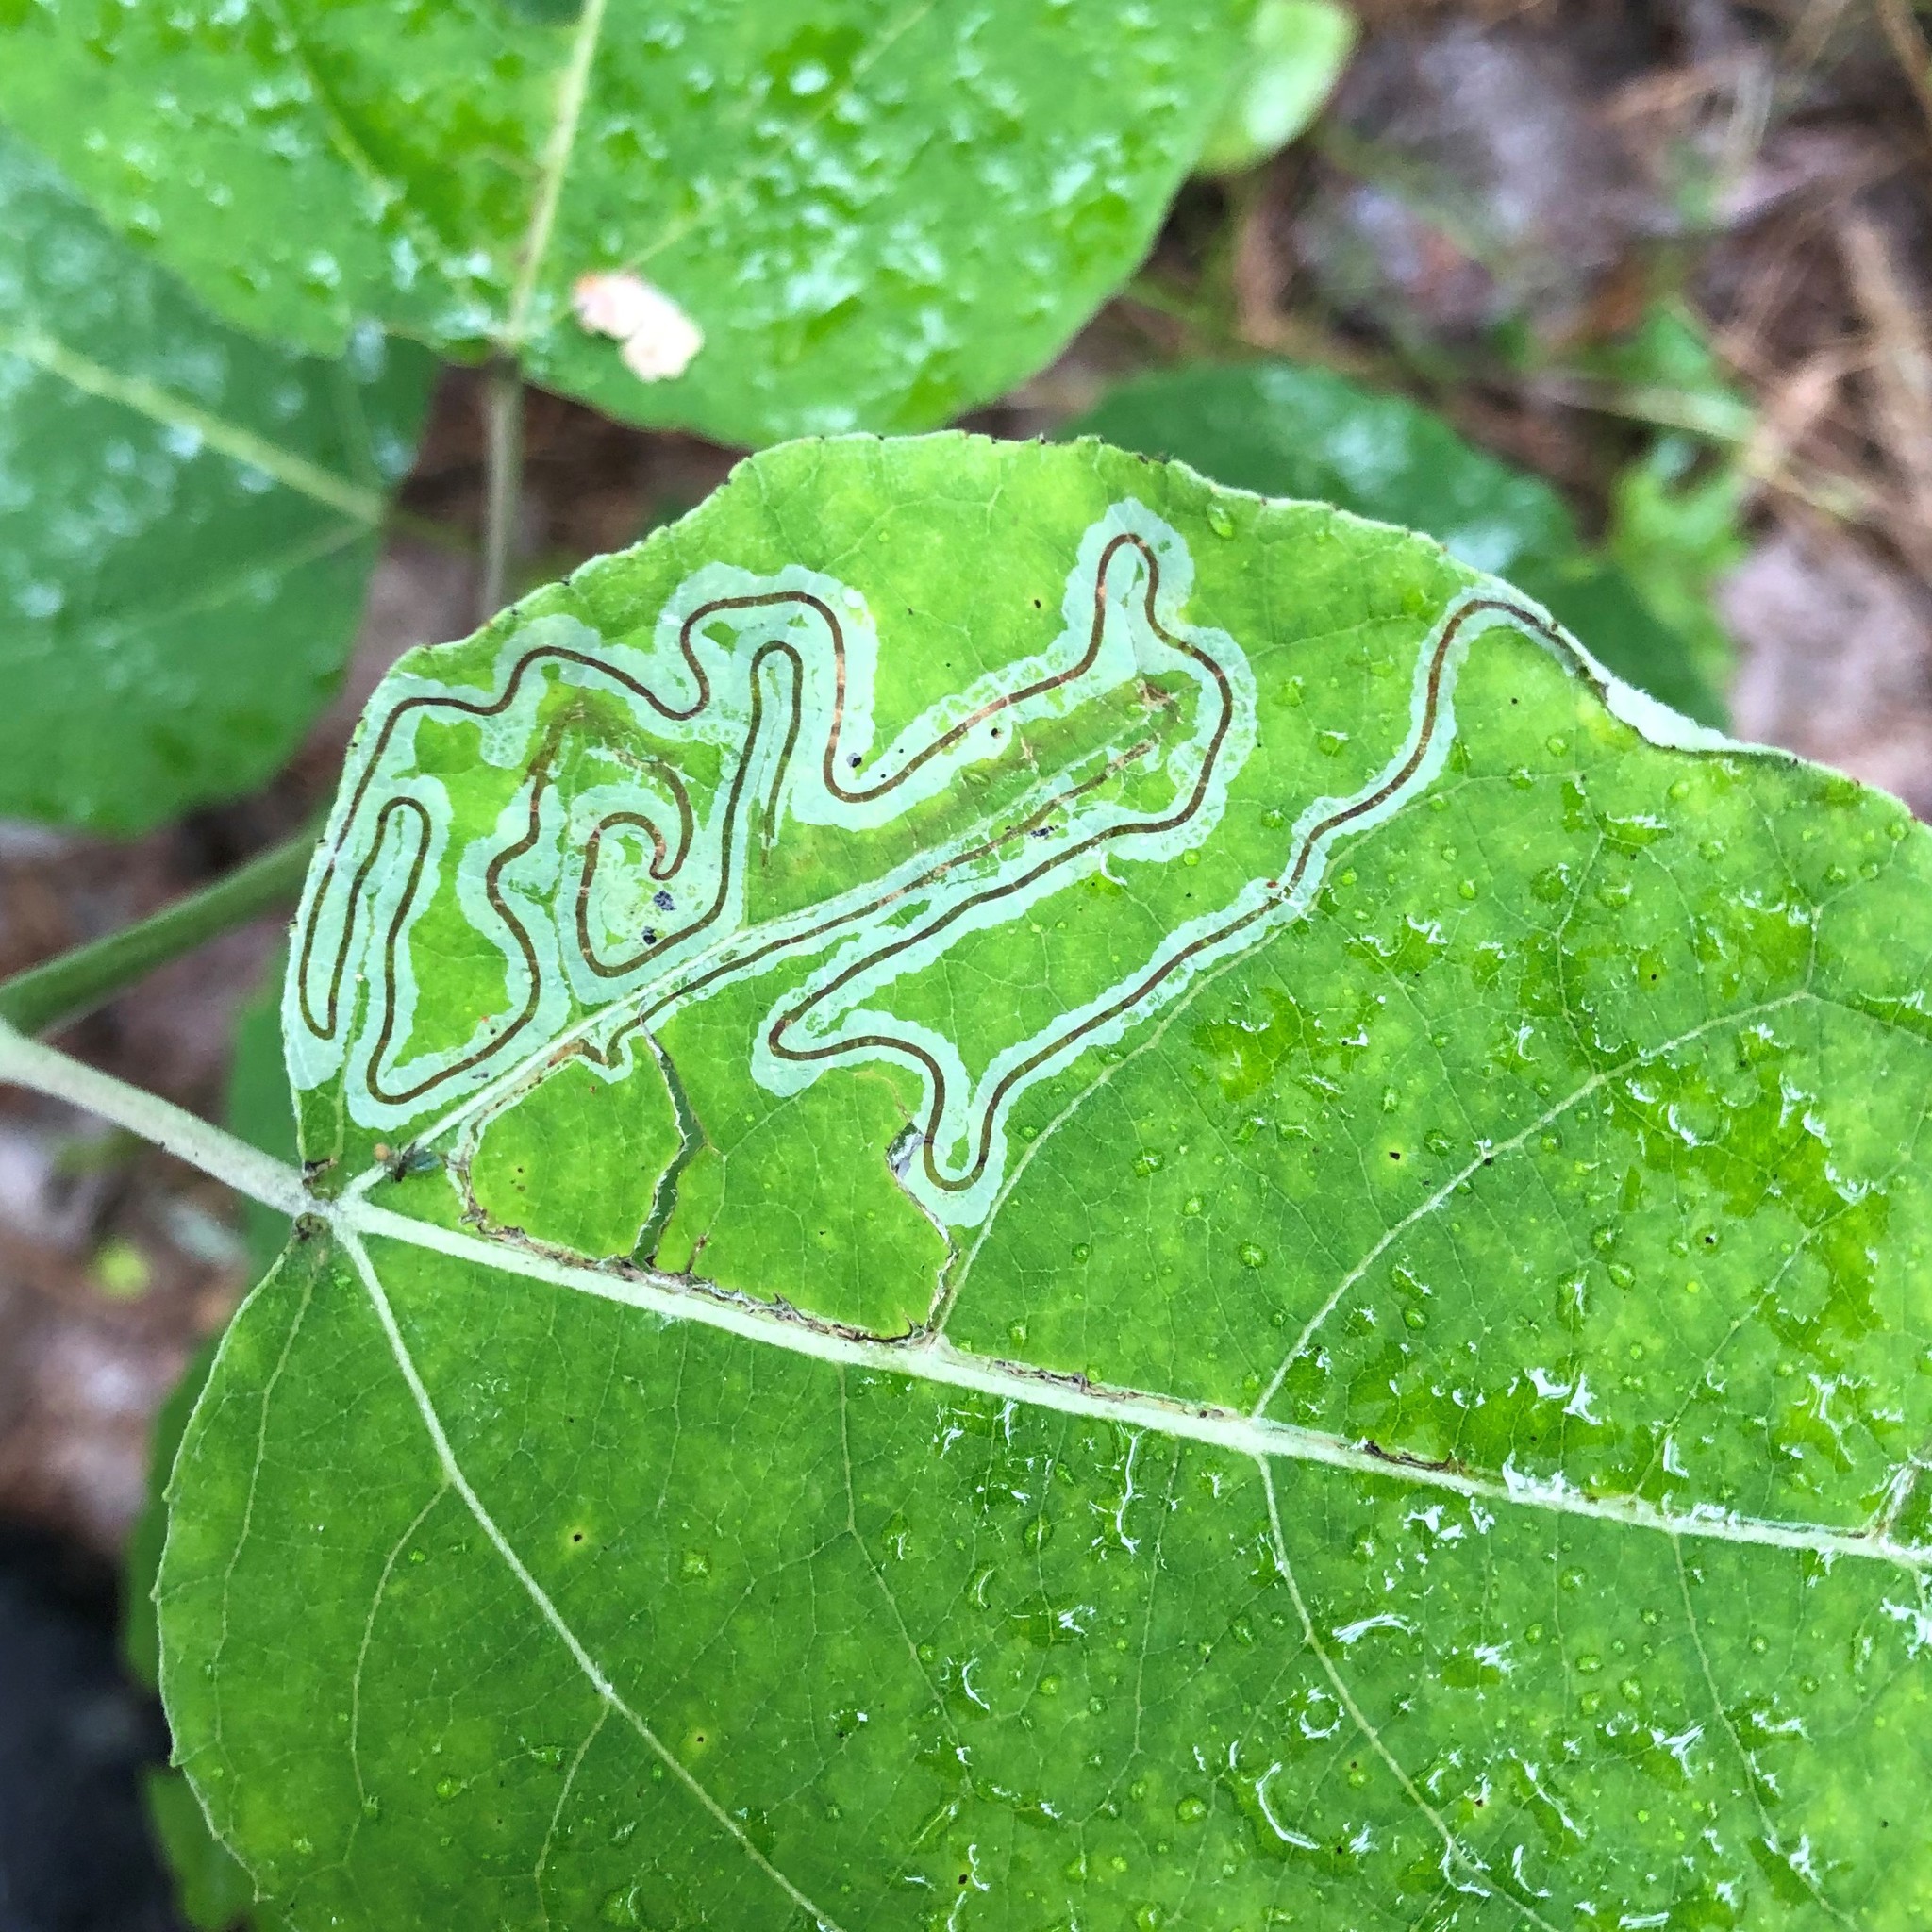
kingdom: Animalia
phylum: Arthropoda
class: Insecta
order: Lepidoptera
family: Gracillariidae
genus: Phyllocnistis
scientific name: Phyllocnistis populiella
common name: Aspen serpentine leafminer moth
